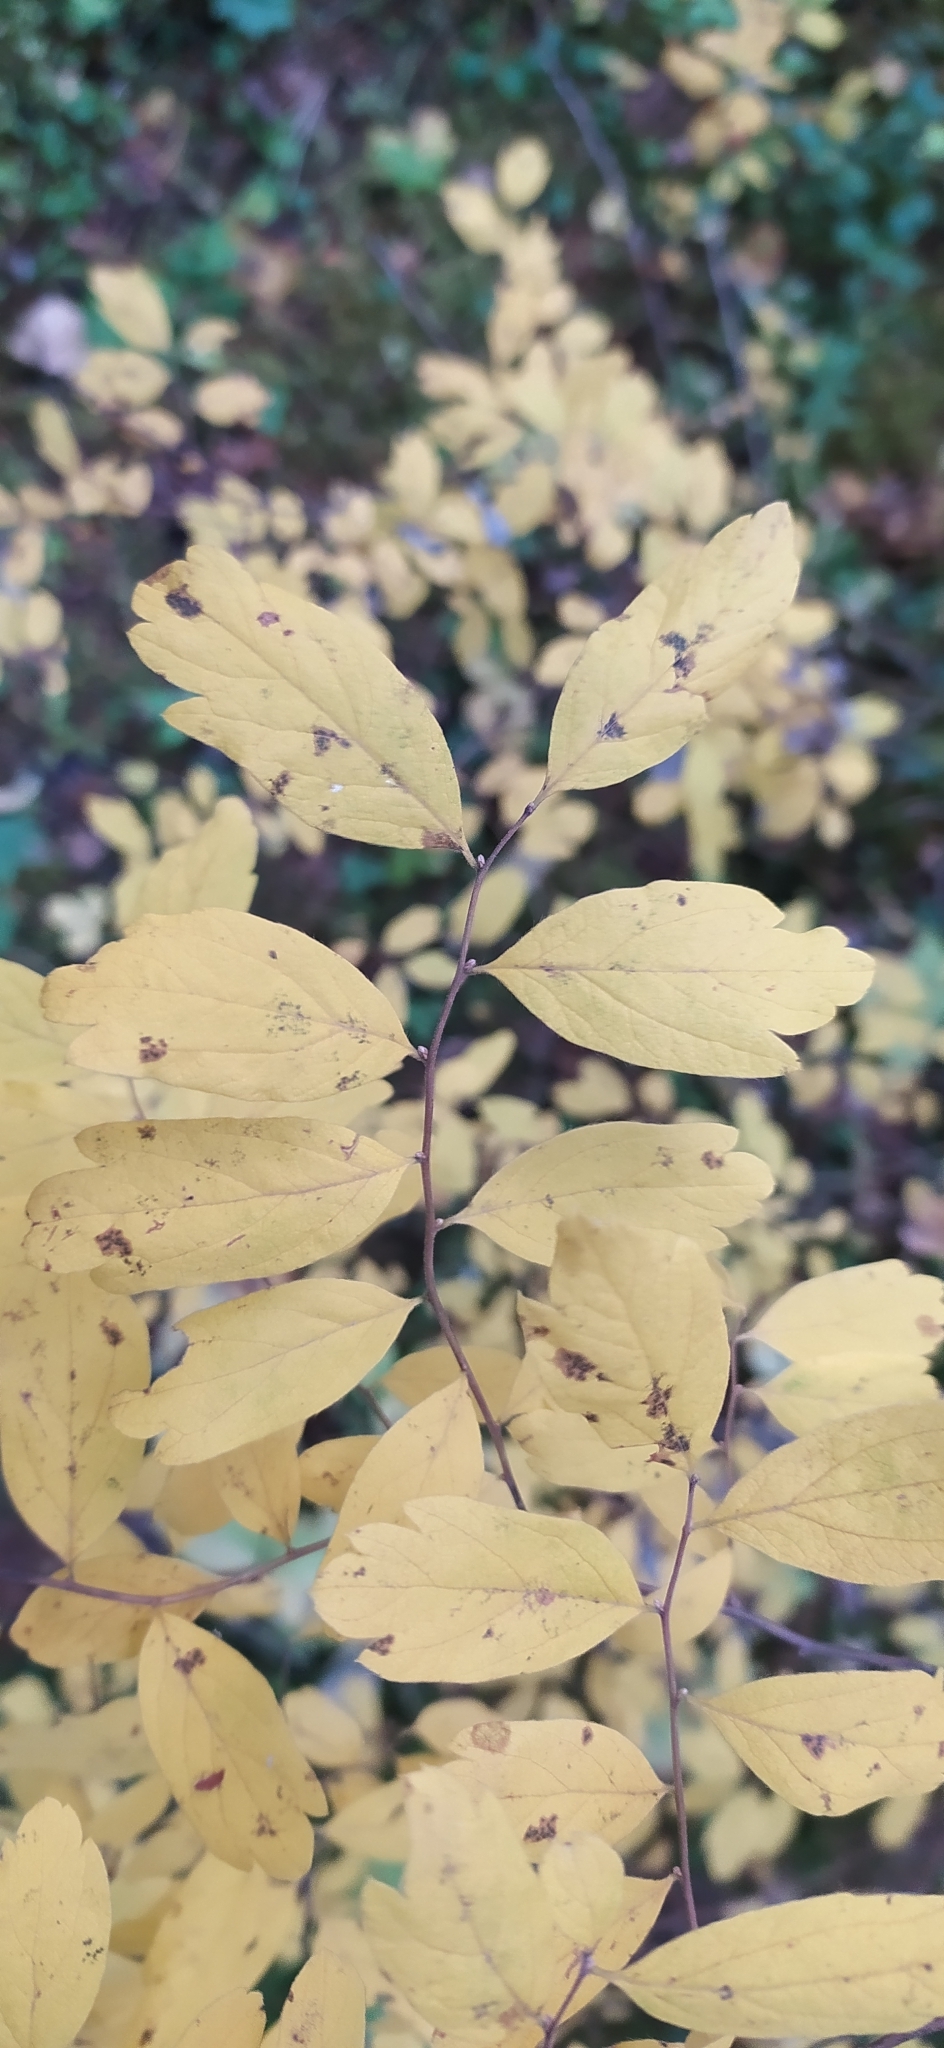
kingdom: Plantae
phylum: Tracheophyta
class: Magnoliopsida
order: Rosales
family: Rosaceae
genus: Spiraea
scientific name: Spiraea media
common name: Russian spiraea
